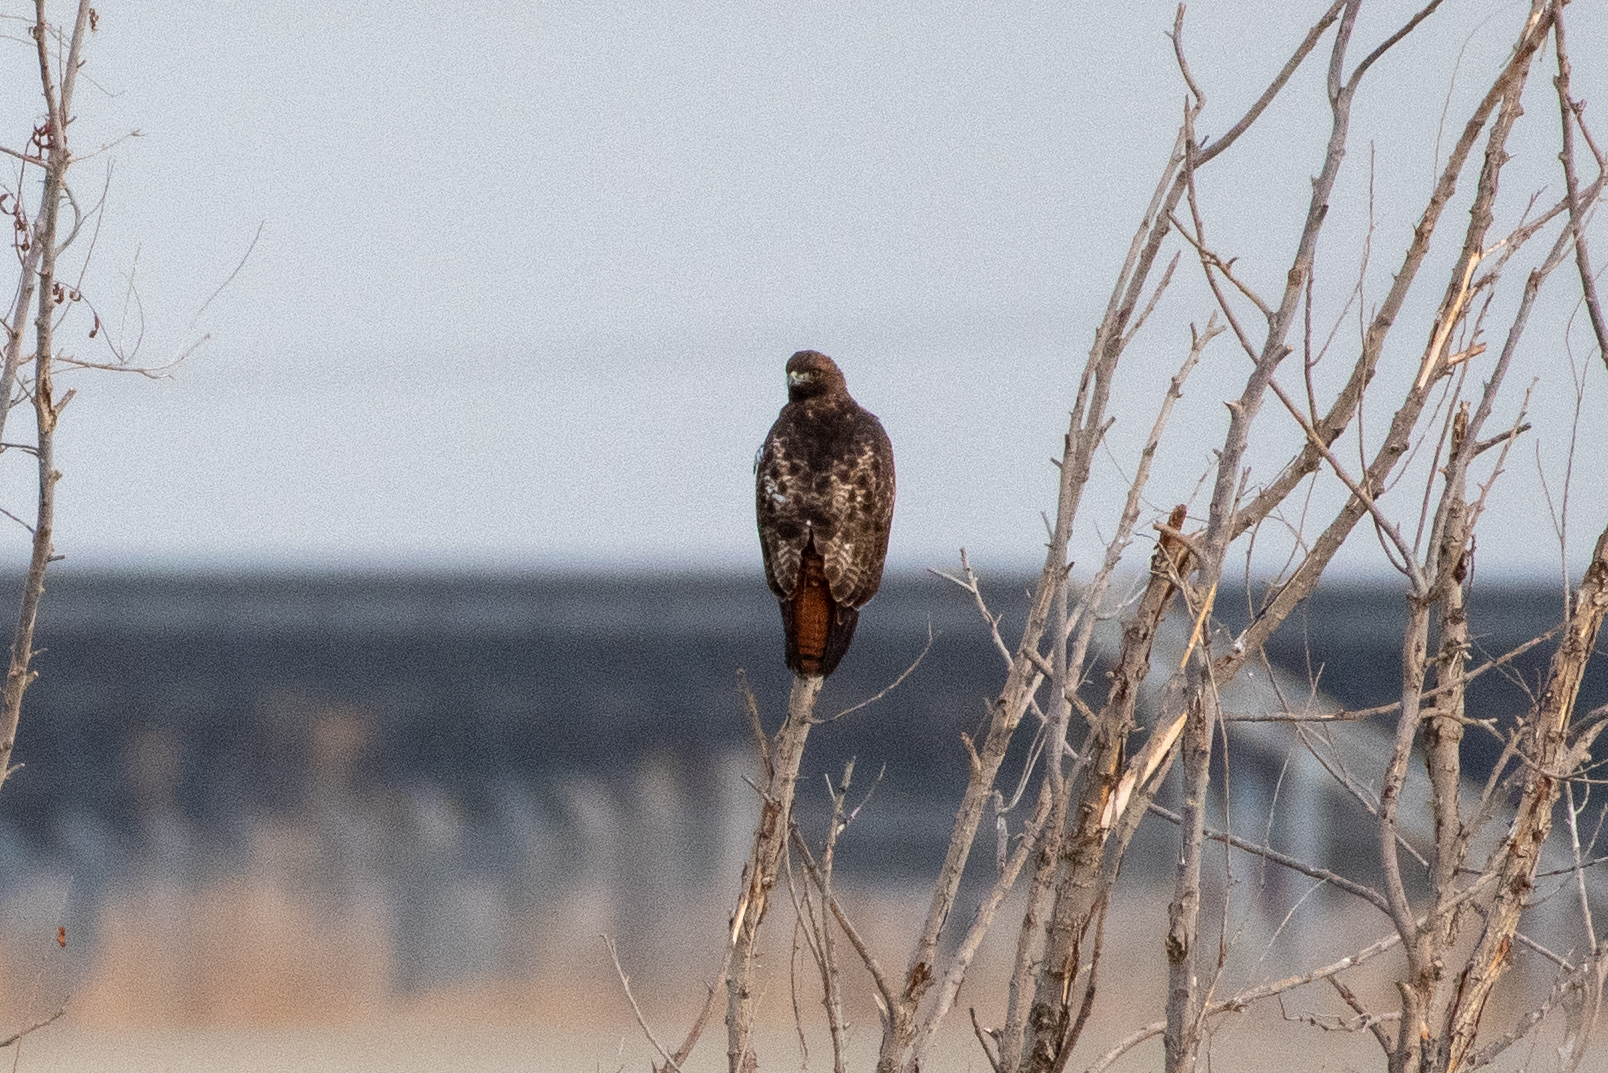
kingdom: Animalia
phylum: Chordata
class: Aves
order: Accipitriformes
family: Accipitridae
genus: Buteo
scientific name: Buteo jamaicensis
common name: Red-tailed hawk
